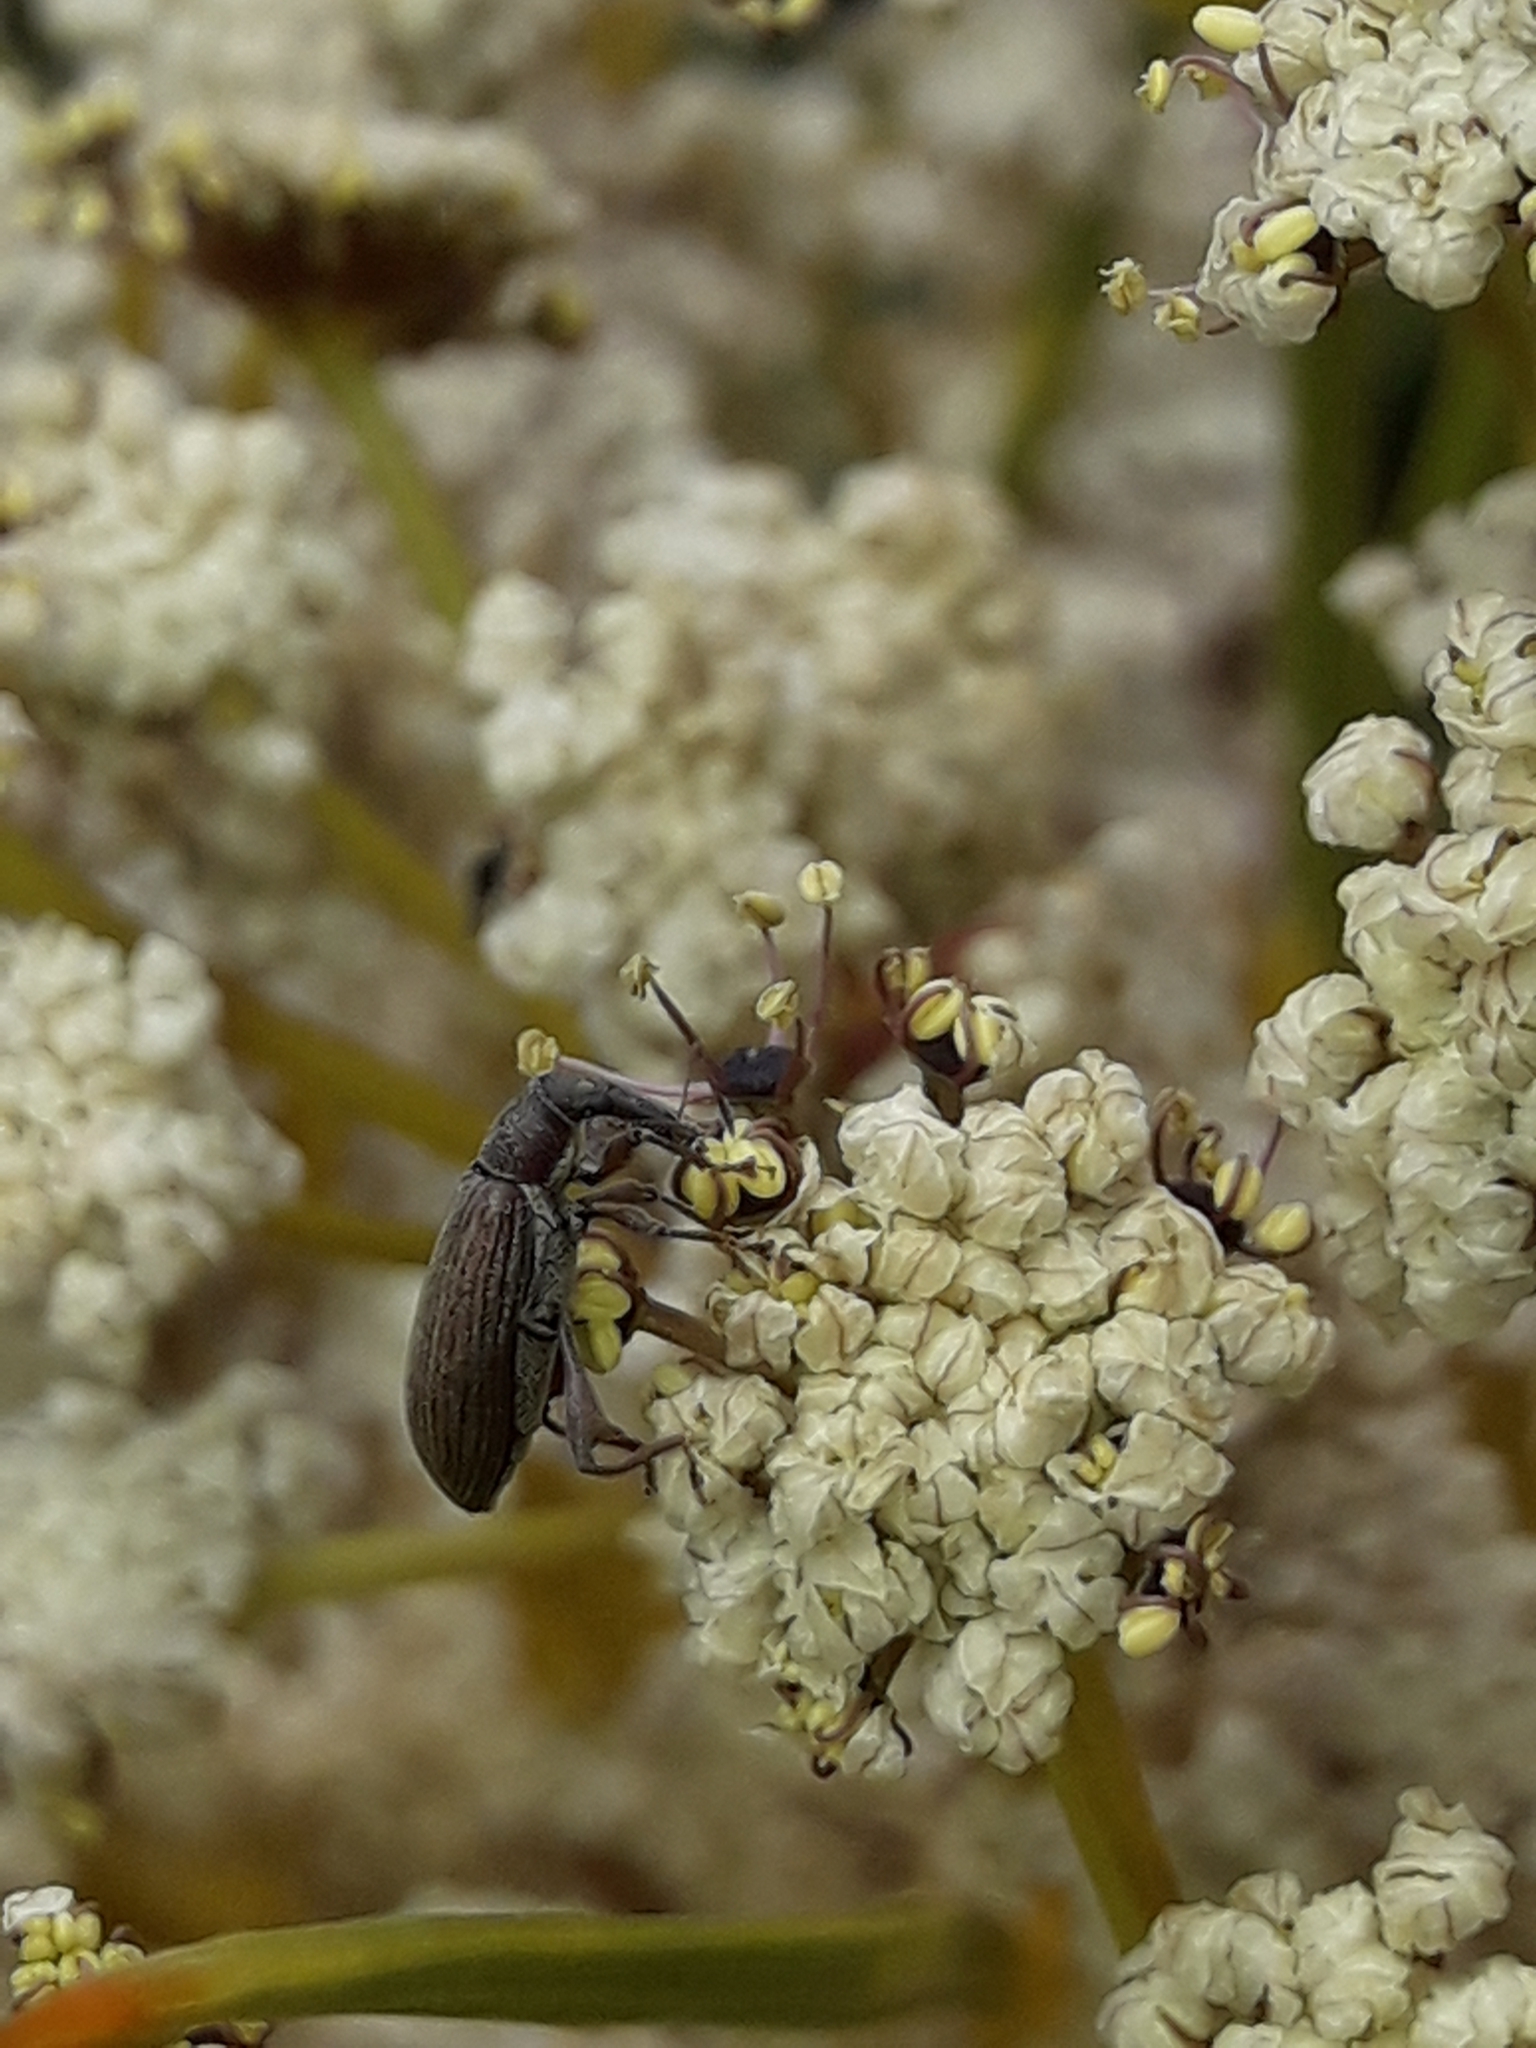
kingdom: Animalia
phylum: Arthropoda
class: Insecta
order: Coleoptera
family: Curculionidae
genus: Eugnomus
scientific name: Eugnomus
